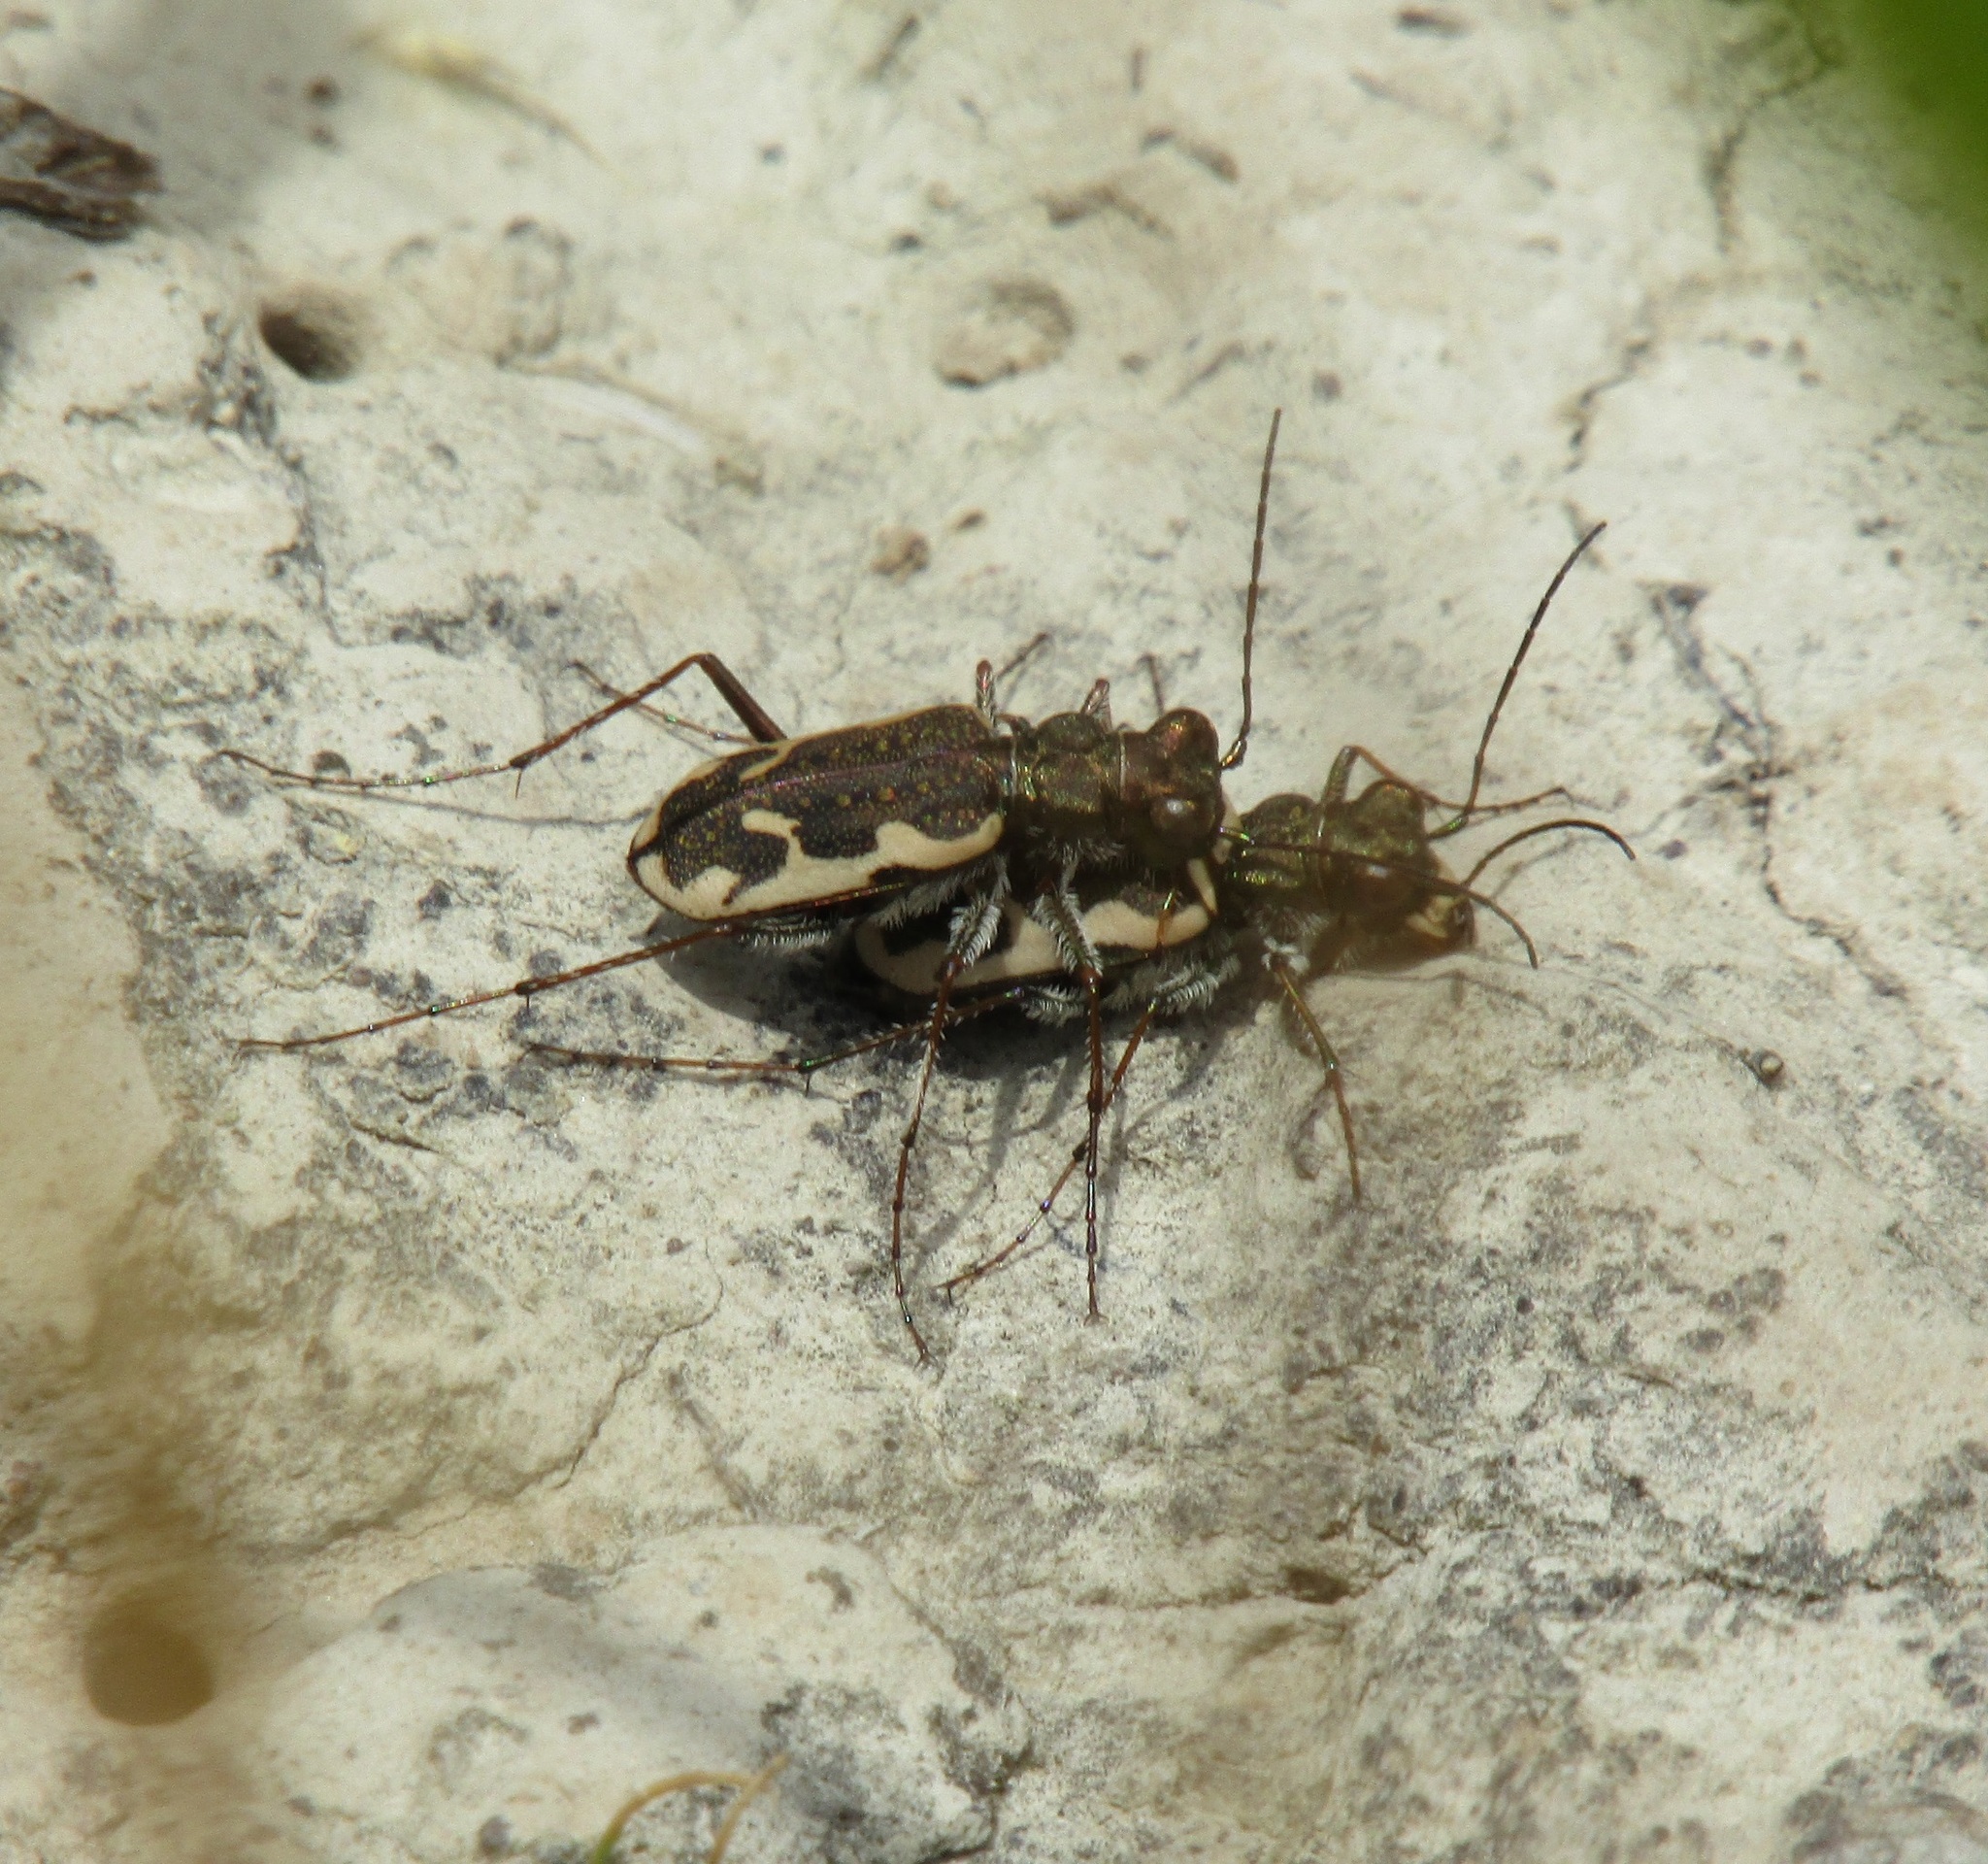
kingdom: Animalia
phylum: Arthropoda
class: Insecta
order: Coleoptera
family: Carabidae
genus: Neocicindela
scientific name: Neocicindela tuberculata
